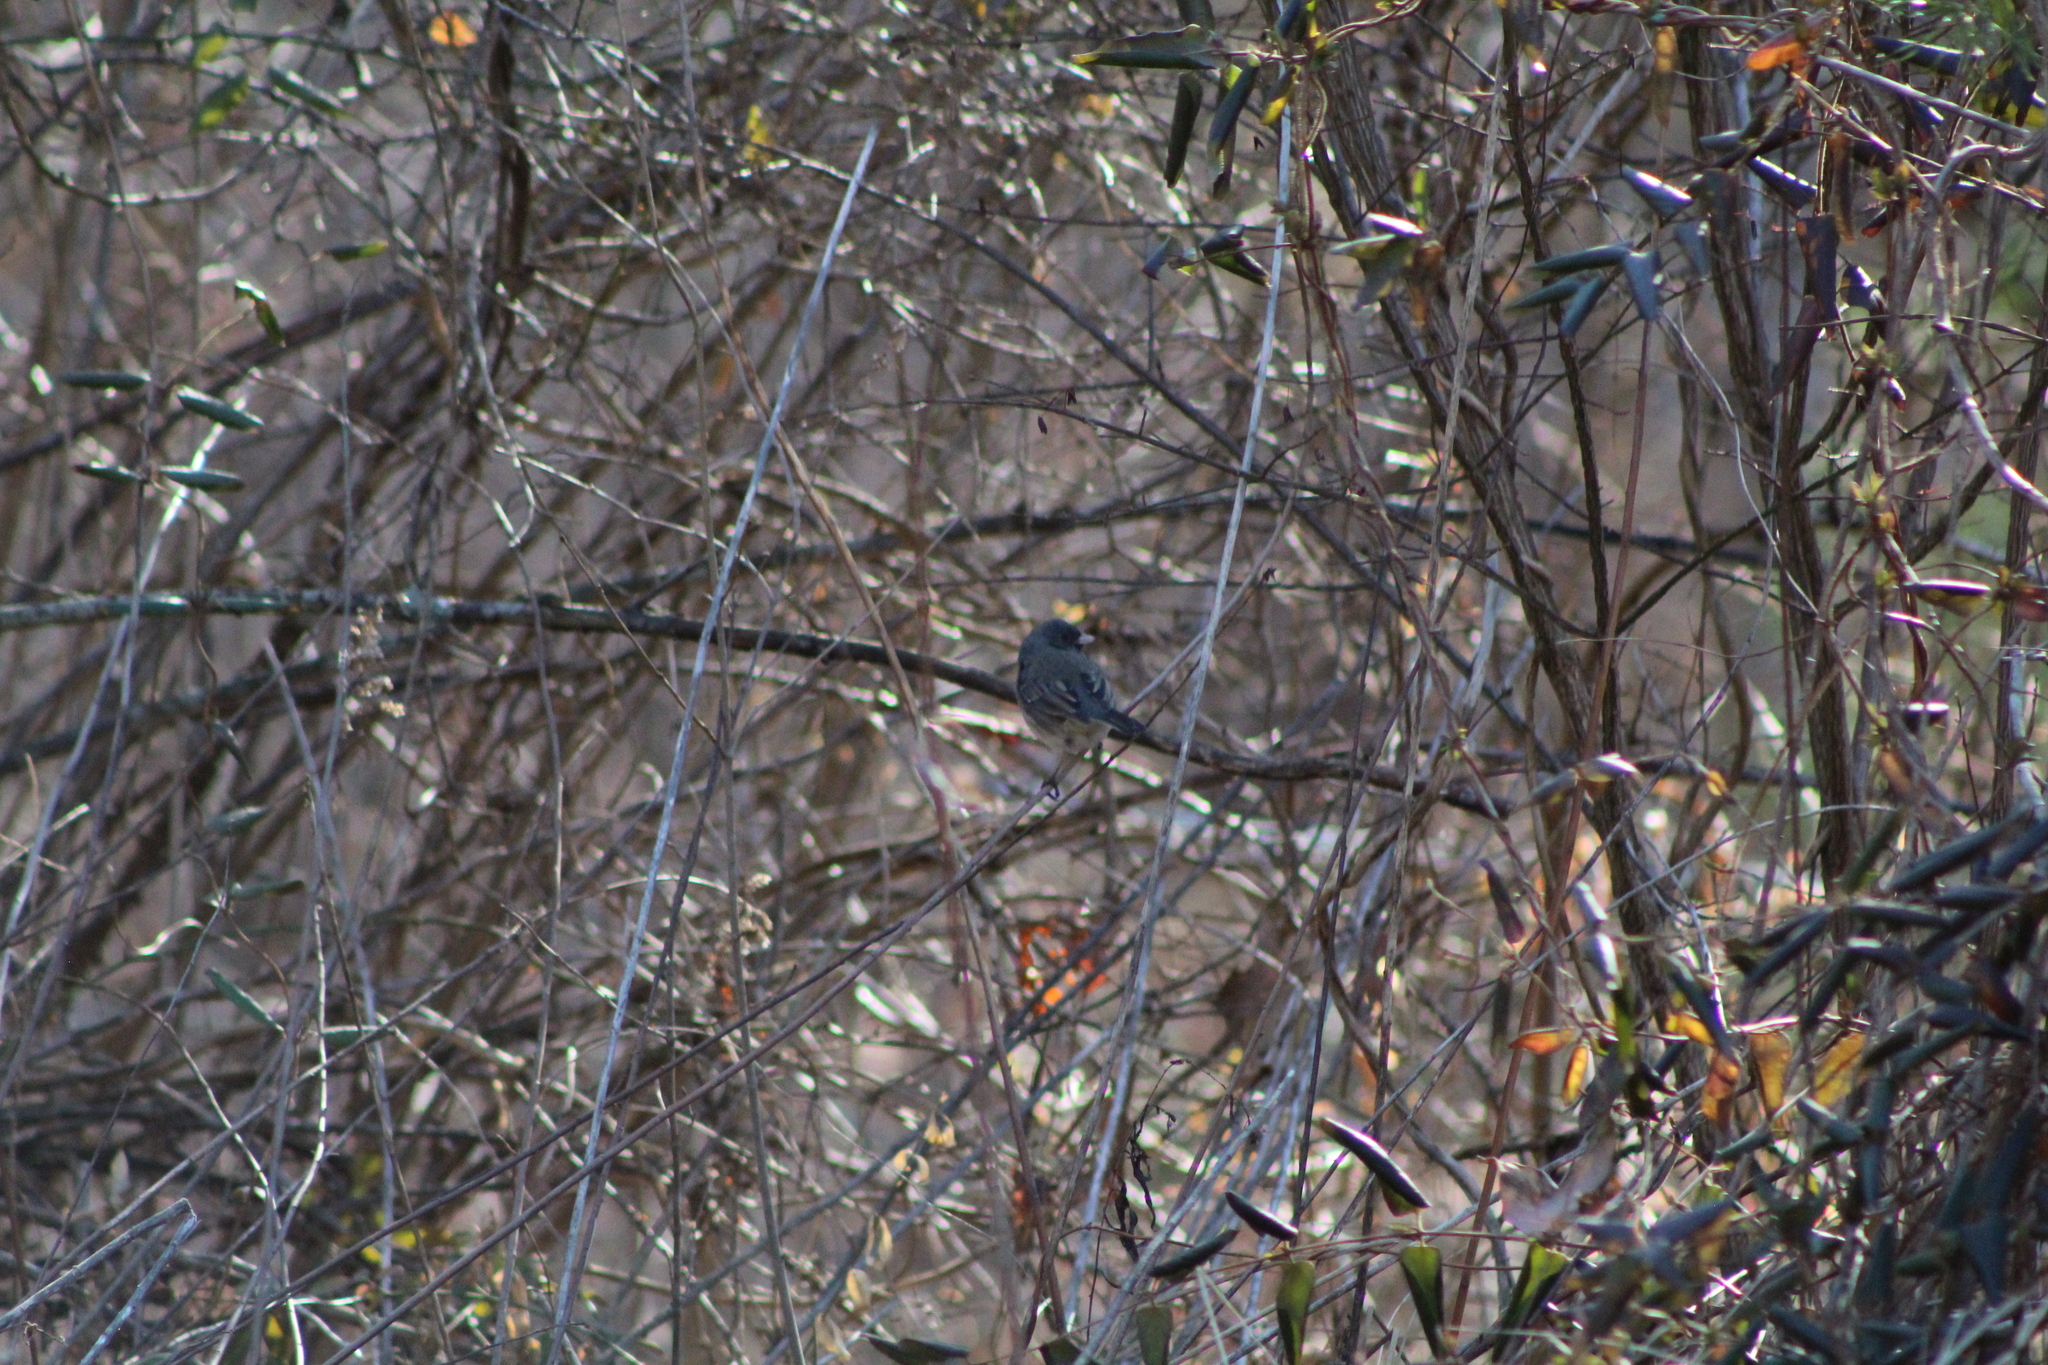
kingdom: Animalia
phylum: Chordata
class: Aves
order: Passeriformes
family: Passerellidae
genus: Junco
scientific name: Junco hyemalis
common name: Dark-eyed junco
